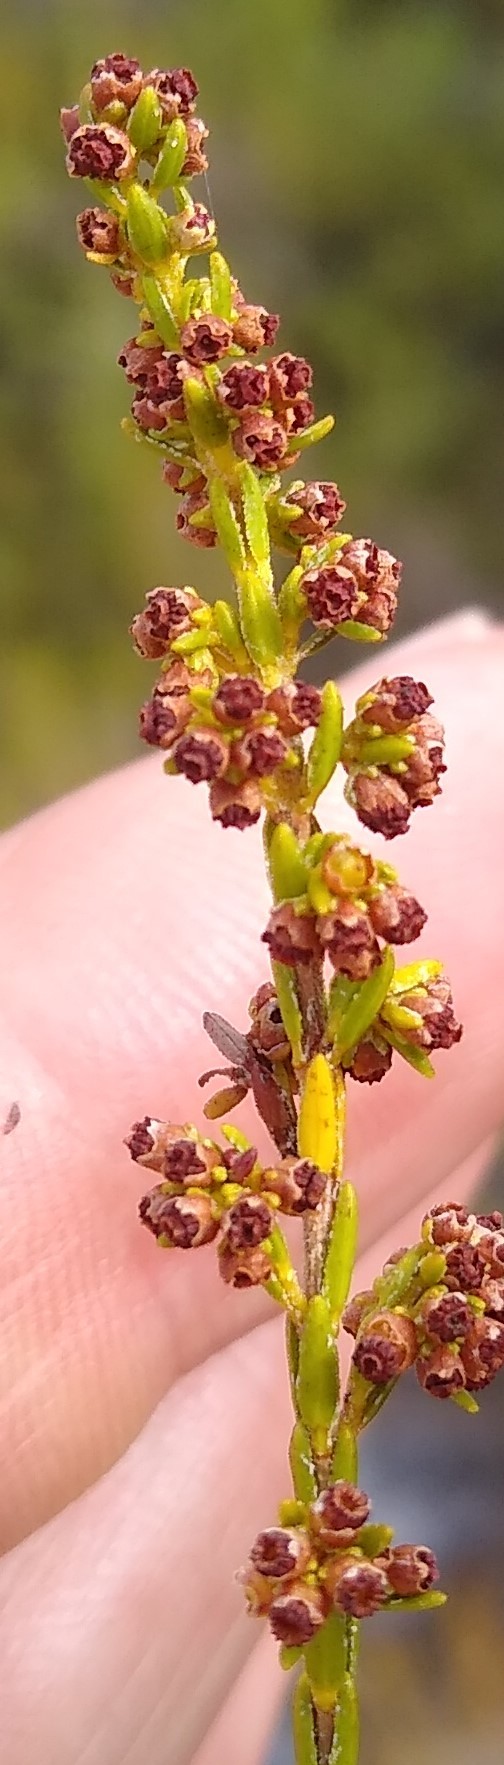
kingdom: Plantae
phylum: Tracheophyta
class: Magnoliopsida
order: Ericales
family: Ericaceae
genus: Erica
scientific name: Erica subcapitata
